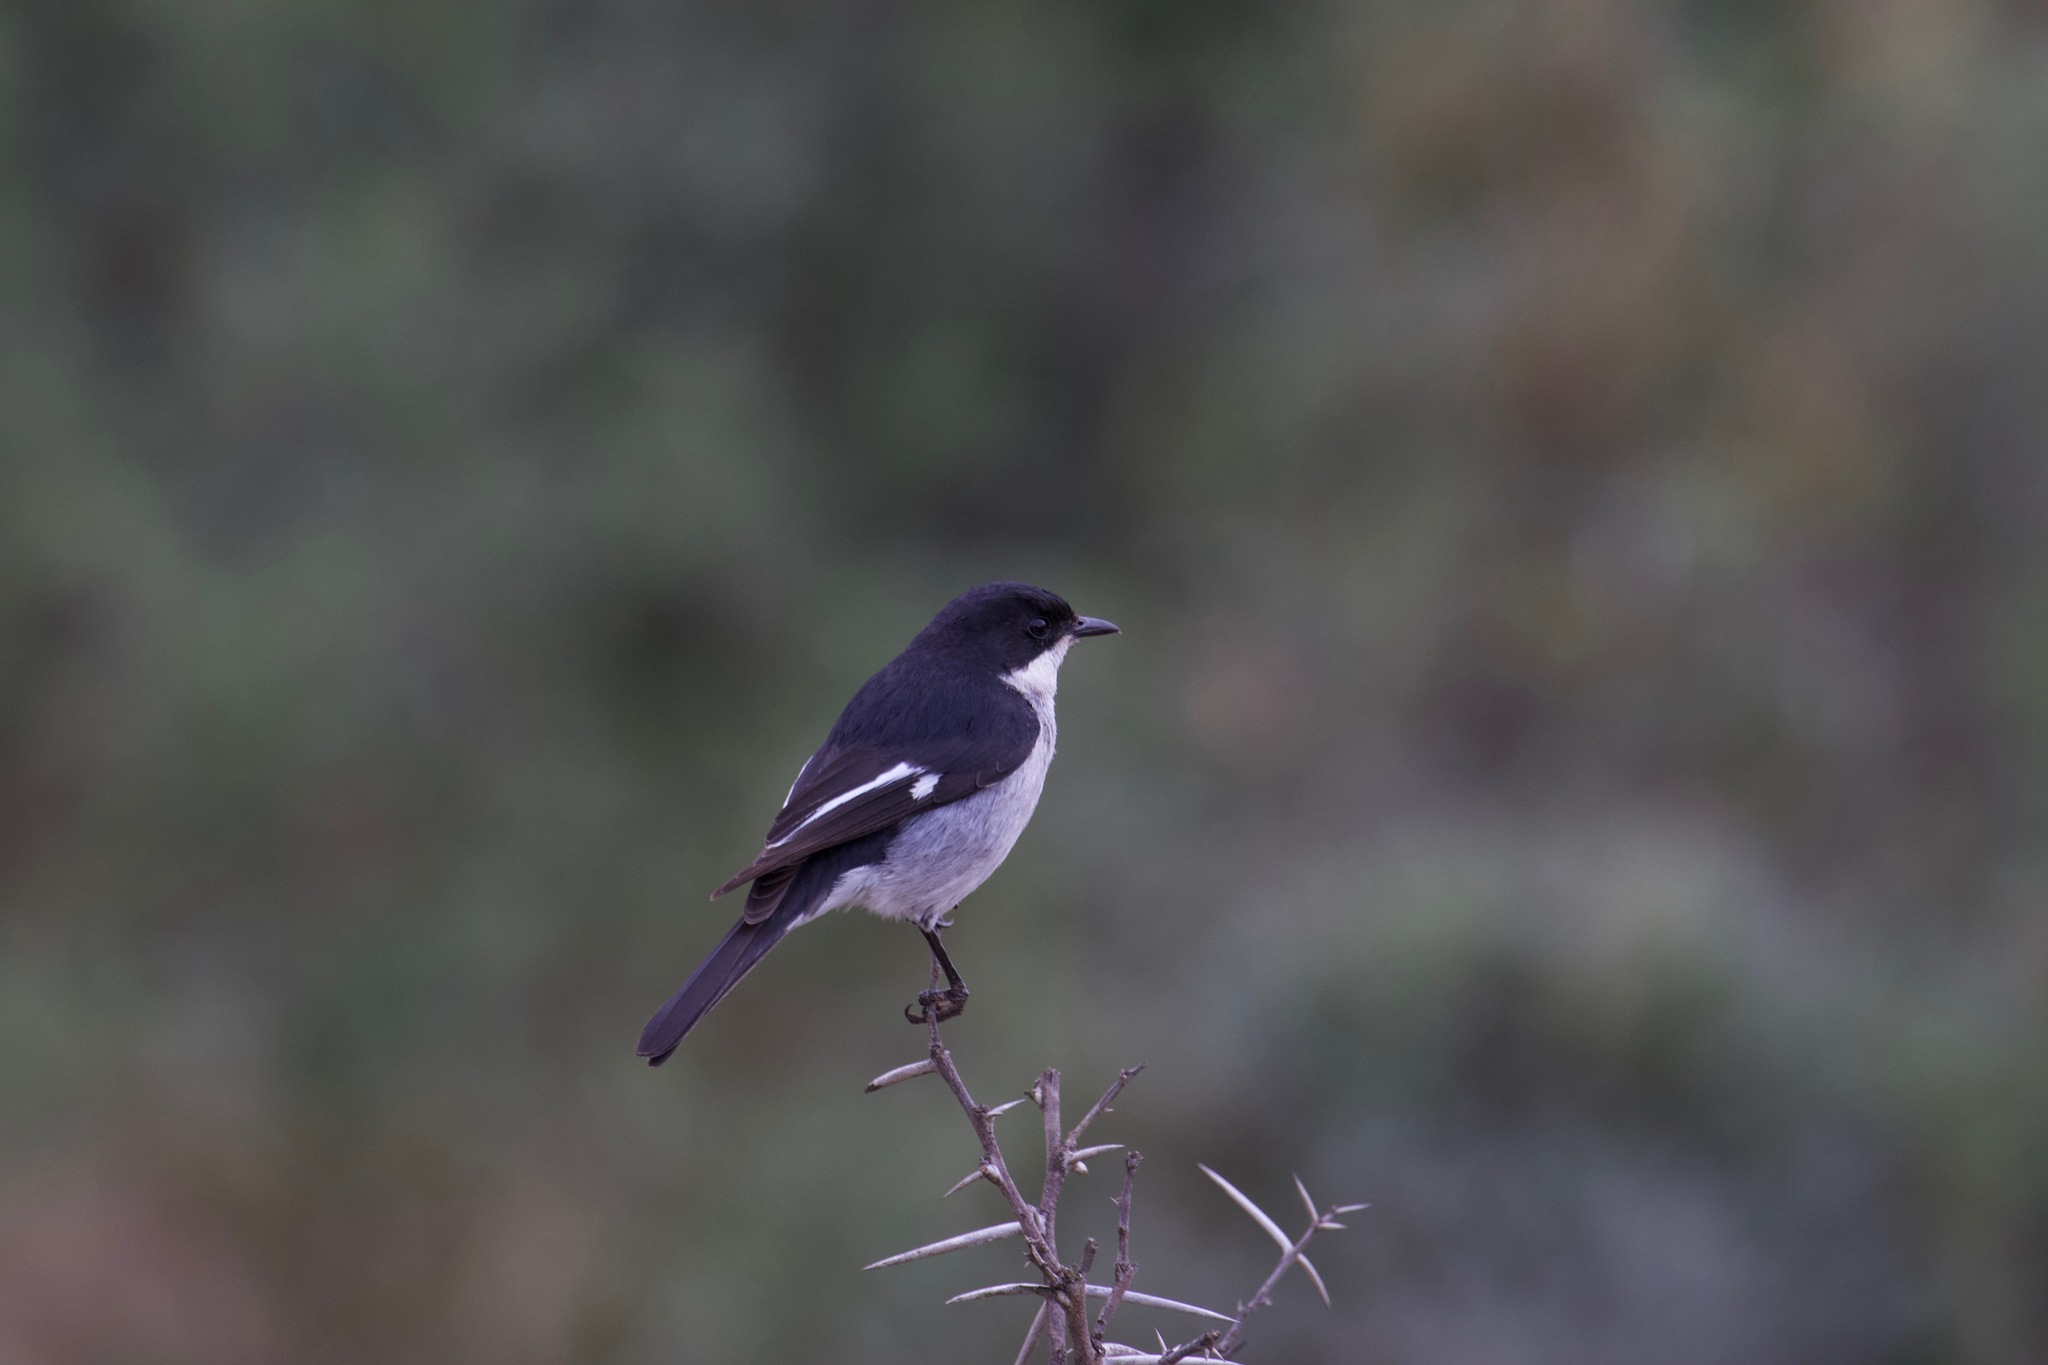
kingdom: Animalia
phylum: Chordata
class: Aves
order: Passeriformes
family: Muscicapidae
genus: Sigelus
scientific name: Sigelus silens
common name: Fiscal flycatcher
